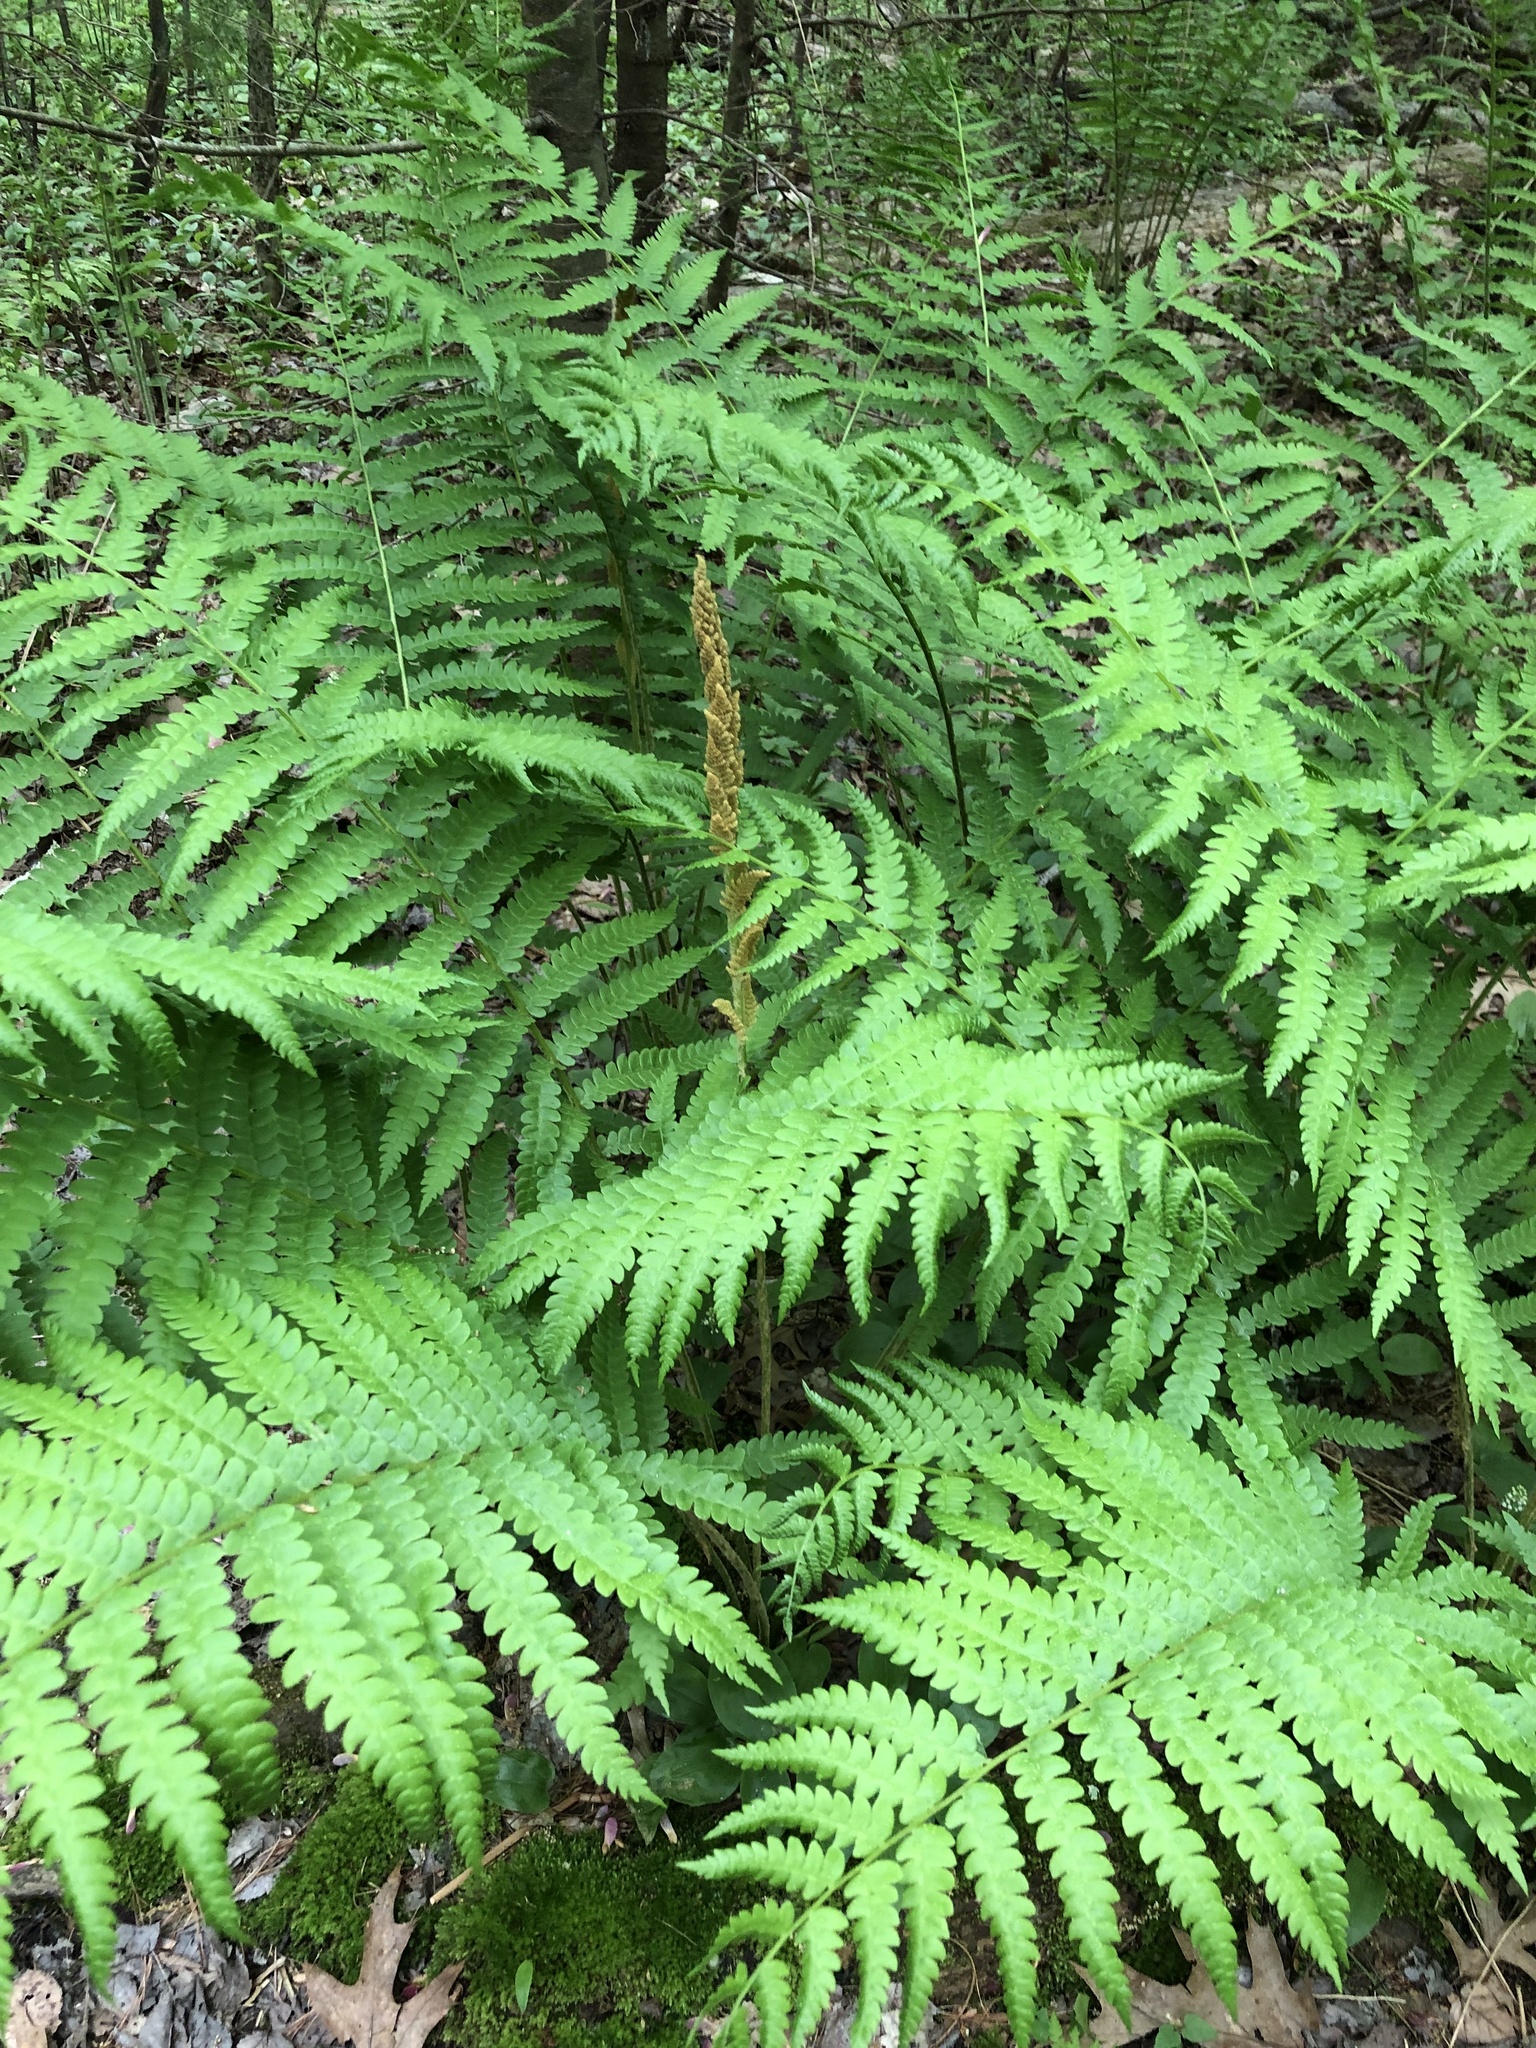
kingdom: Plantae
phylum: Tracheophyta
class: Polypodiopsida
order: Osmundales
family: Osmundaceae
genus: Osmundastrum
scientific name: Osmundastrum cinnamomeum
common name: Cinnamon fern
